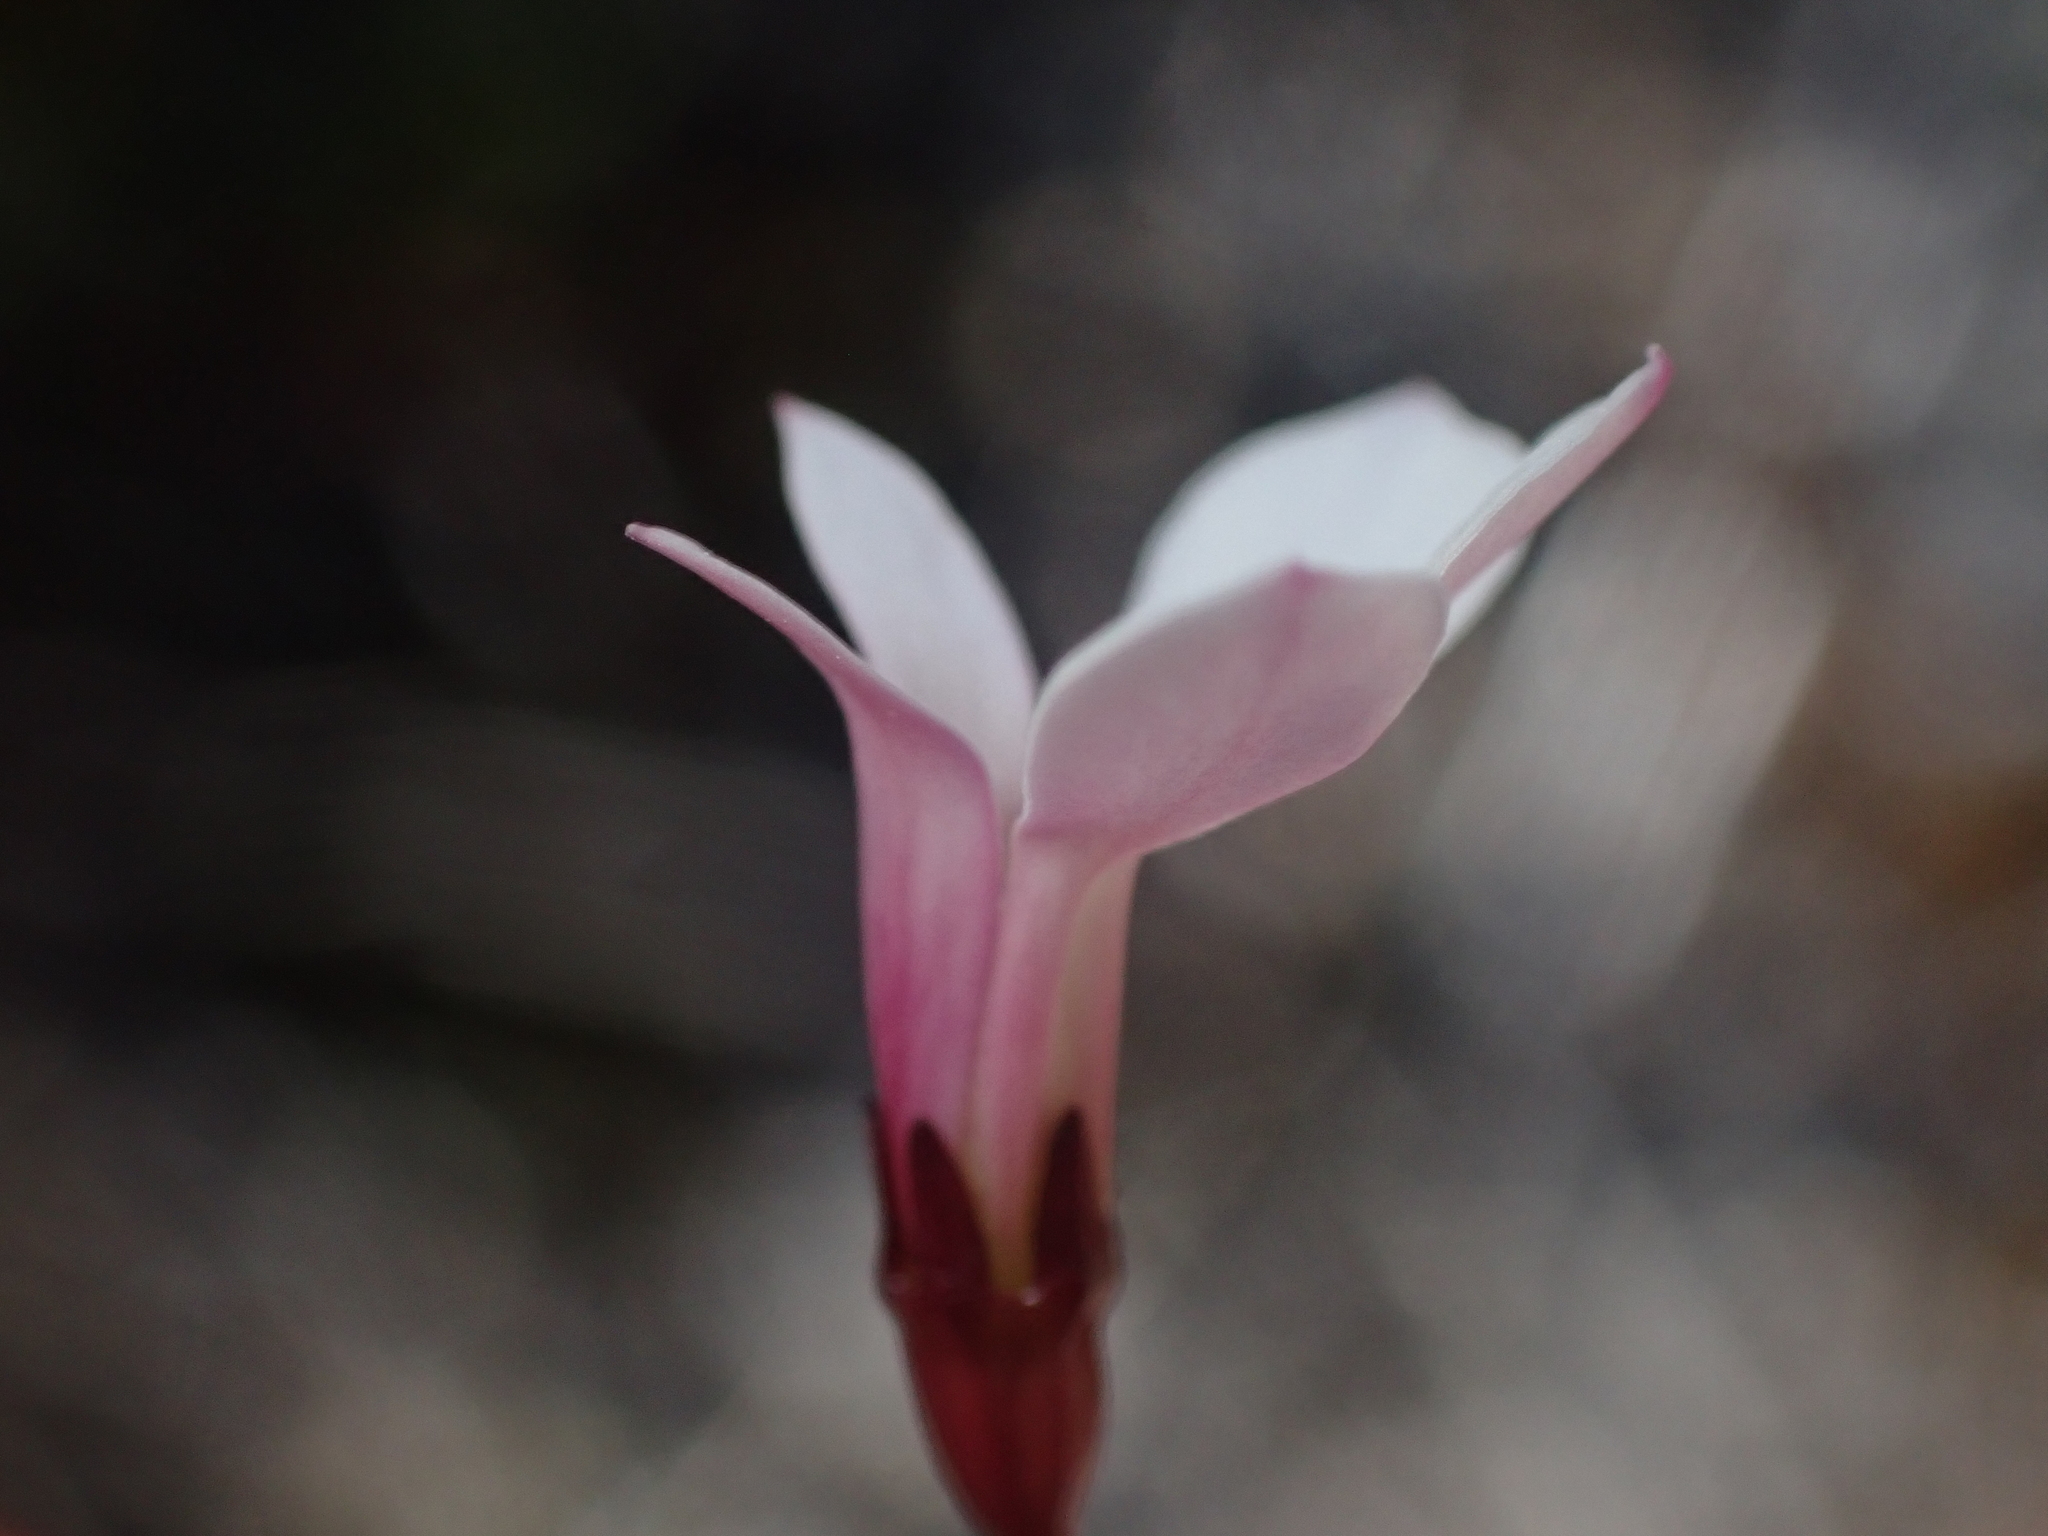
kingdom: Plantae
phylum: Tracheophyta
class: Magnoliopsida
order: Asterales
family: Campanulaceae
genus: Lobelia
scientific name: Lobelia angulata
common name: Lawn lobelia
